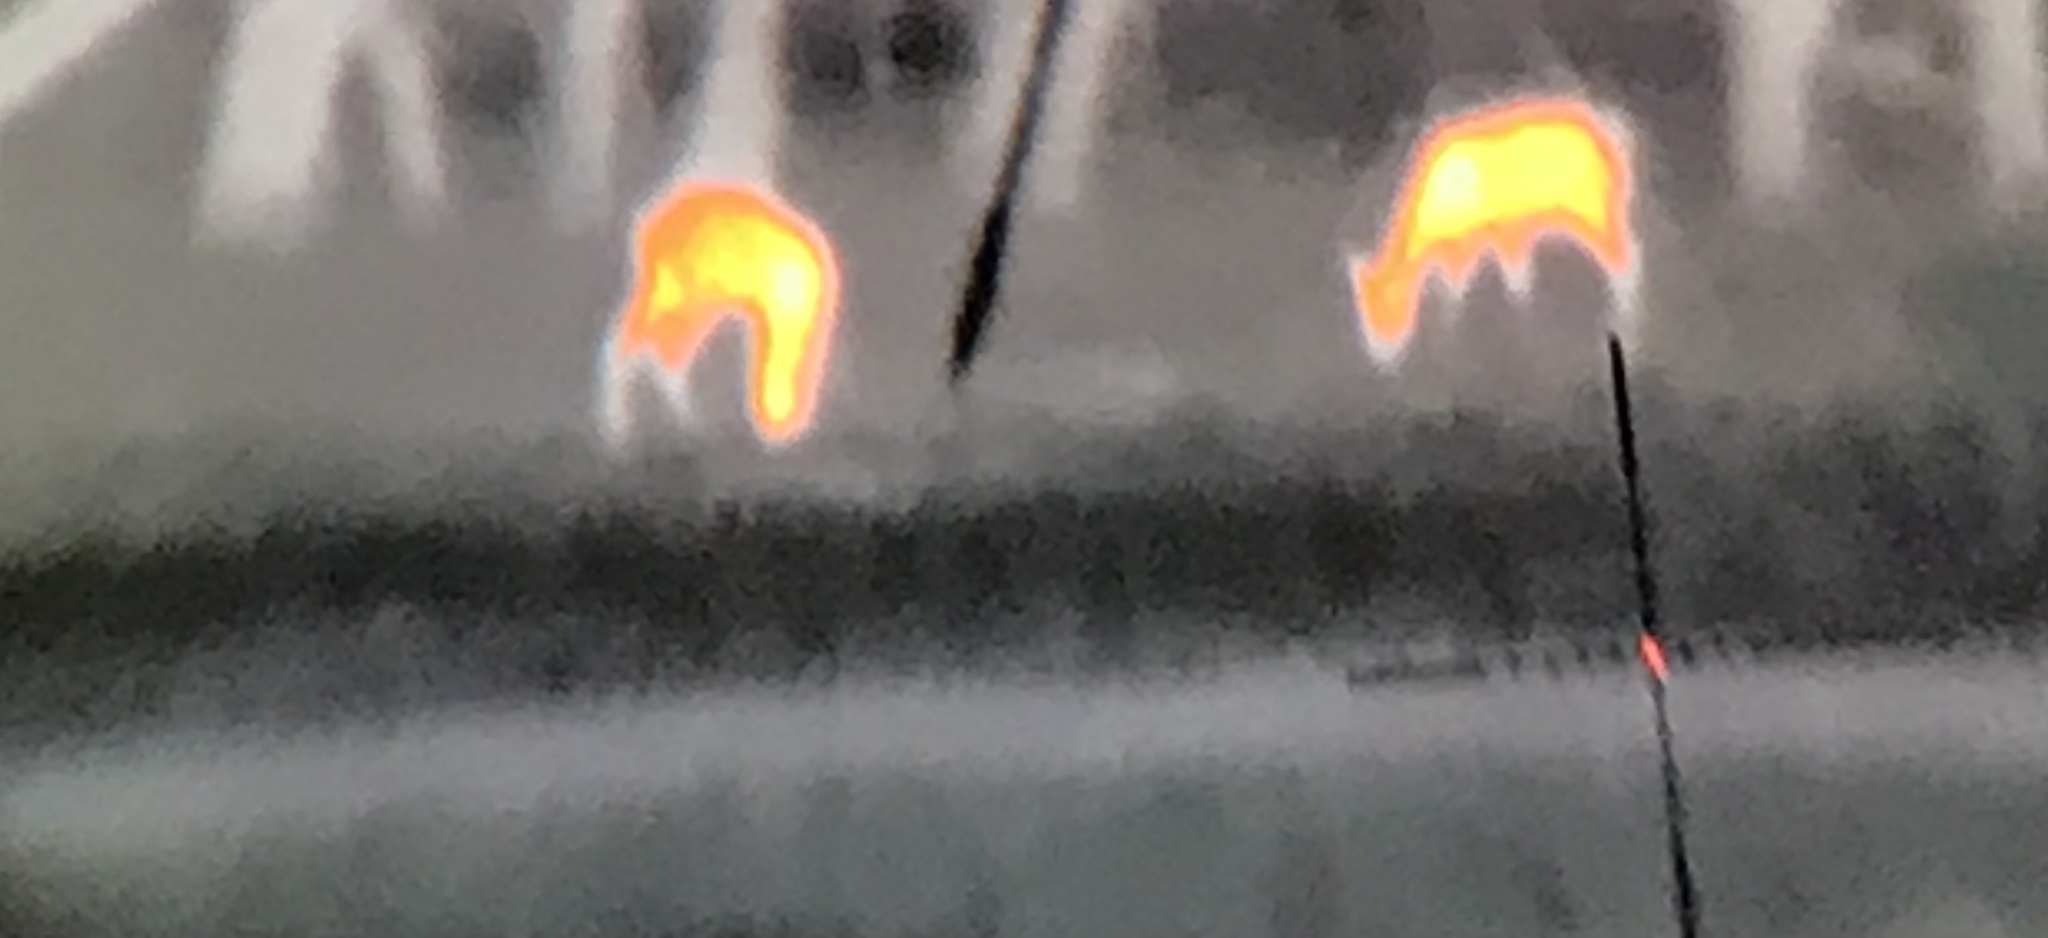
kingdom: Animalia
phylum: Chordata
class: Mammalia
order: Artiodactyla
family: Cervidae
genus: Odocoileus
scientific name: Odocoileus virginianus
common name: White-tailed deer
